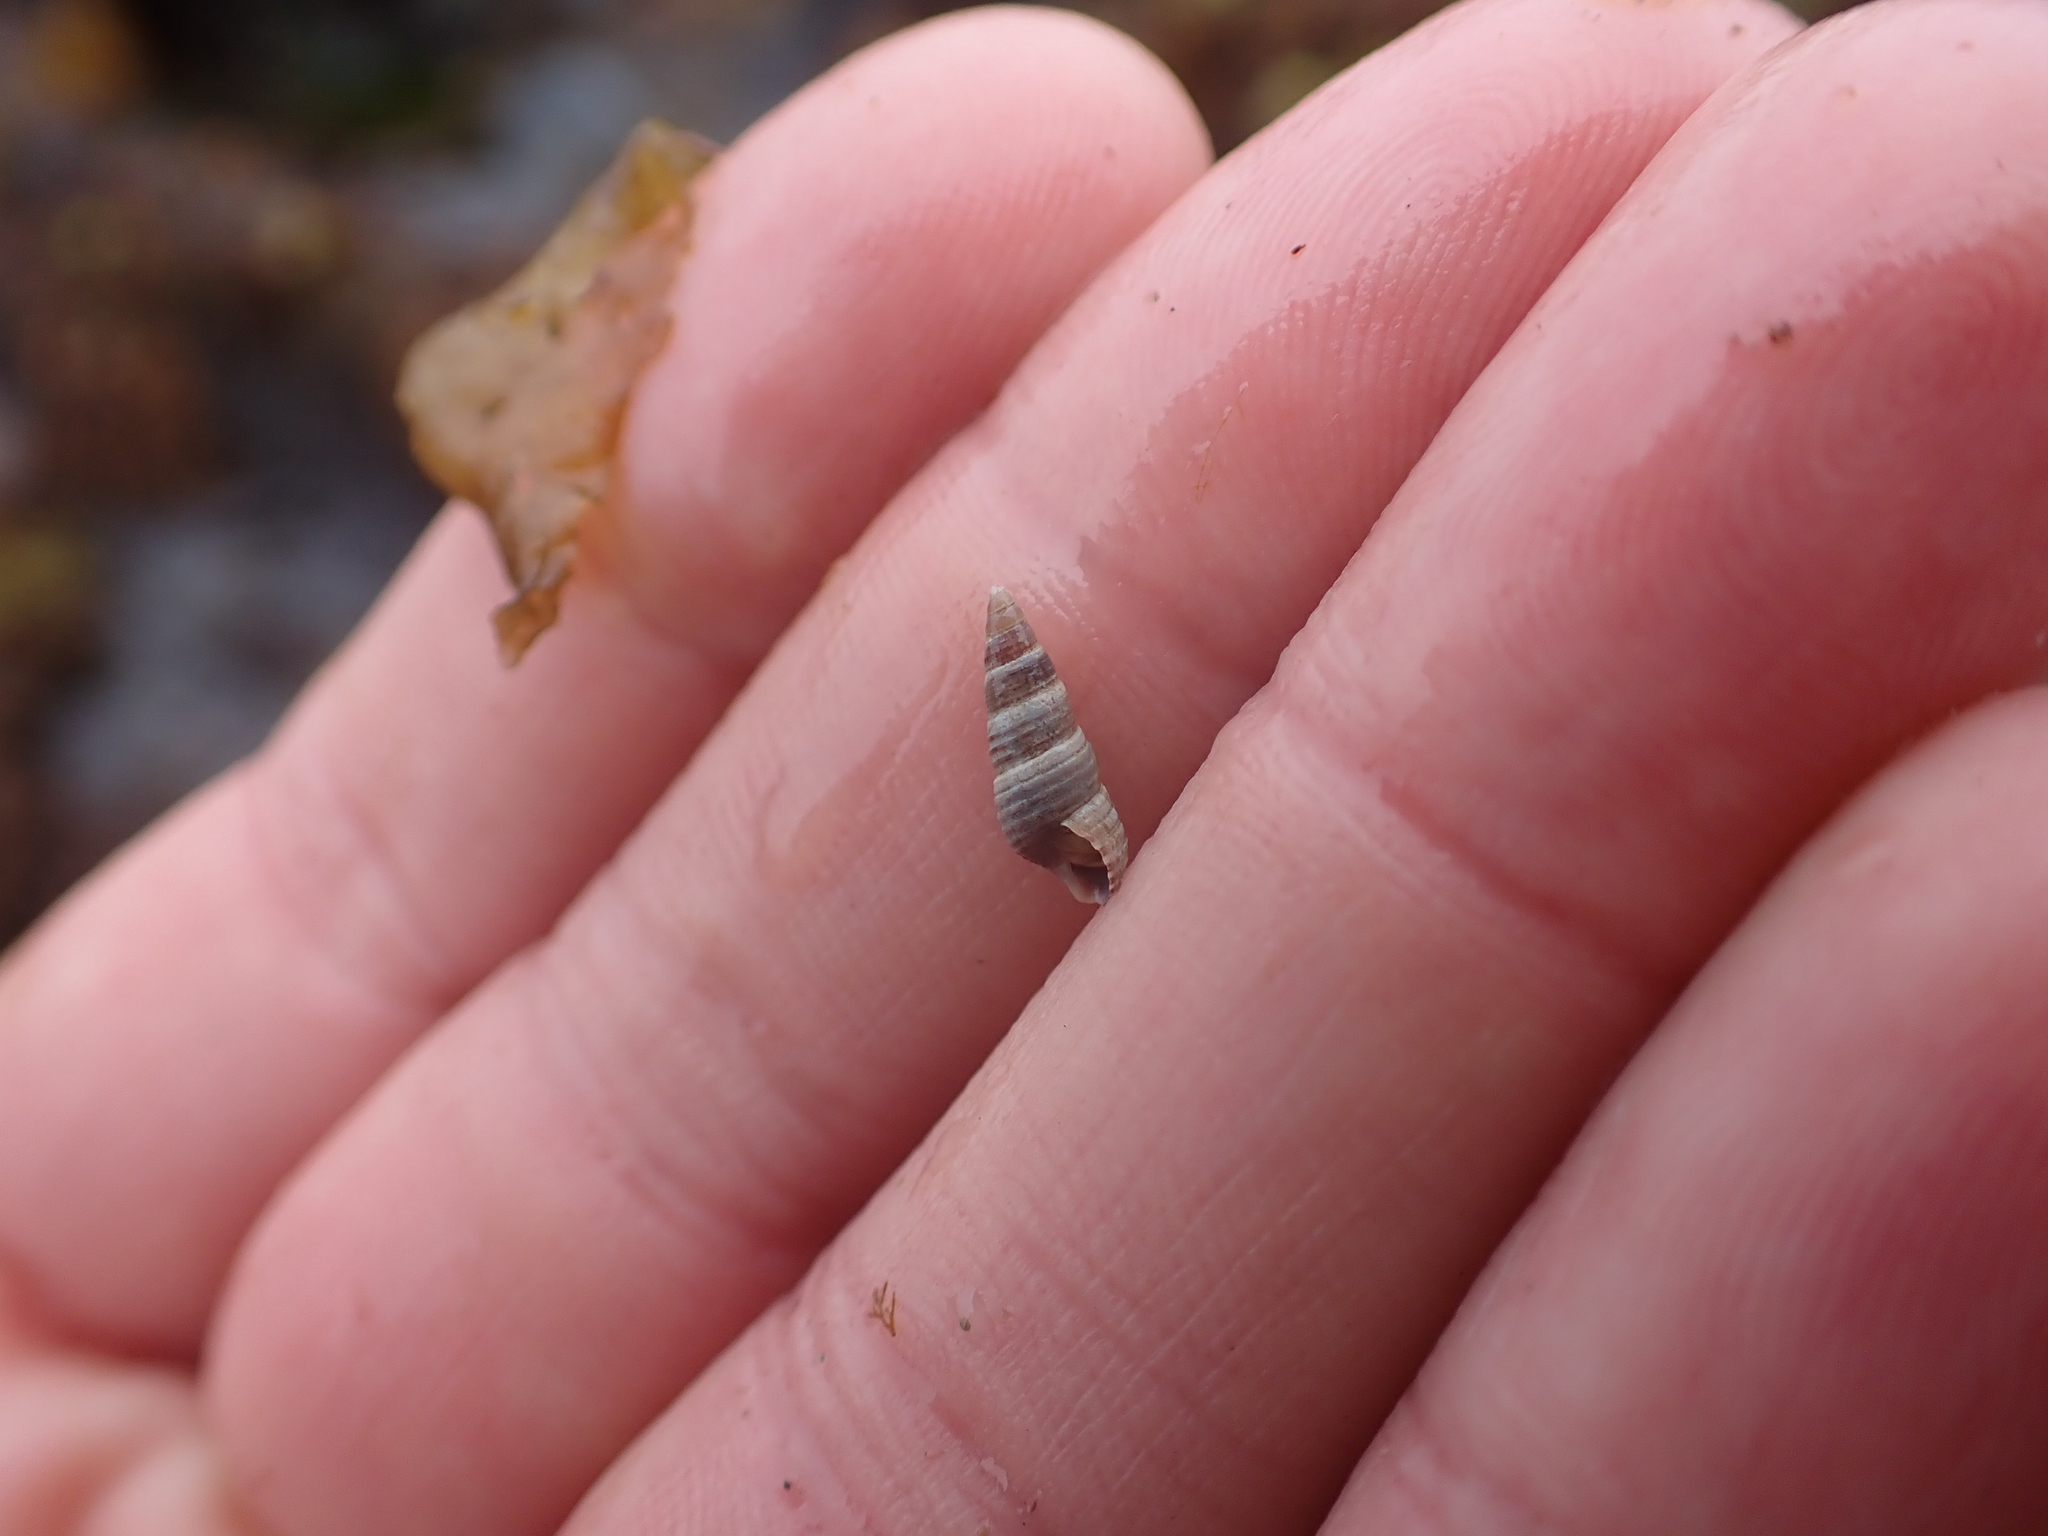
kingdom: Animalia
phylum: Mollusca
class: Gastropoda
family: Cerithiidae
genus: Neostylidium
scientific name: Neostylidium eschrichtii
